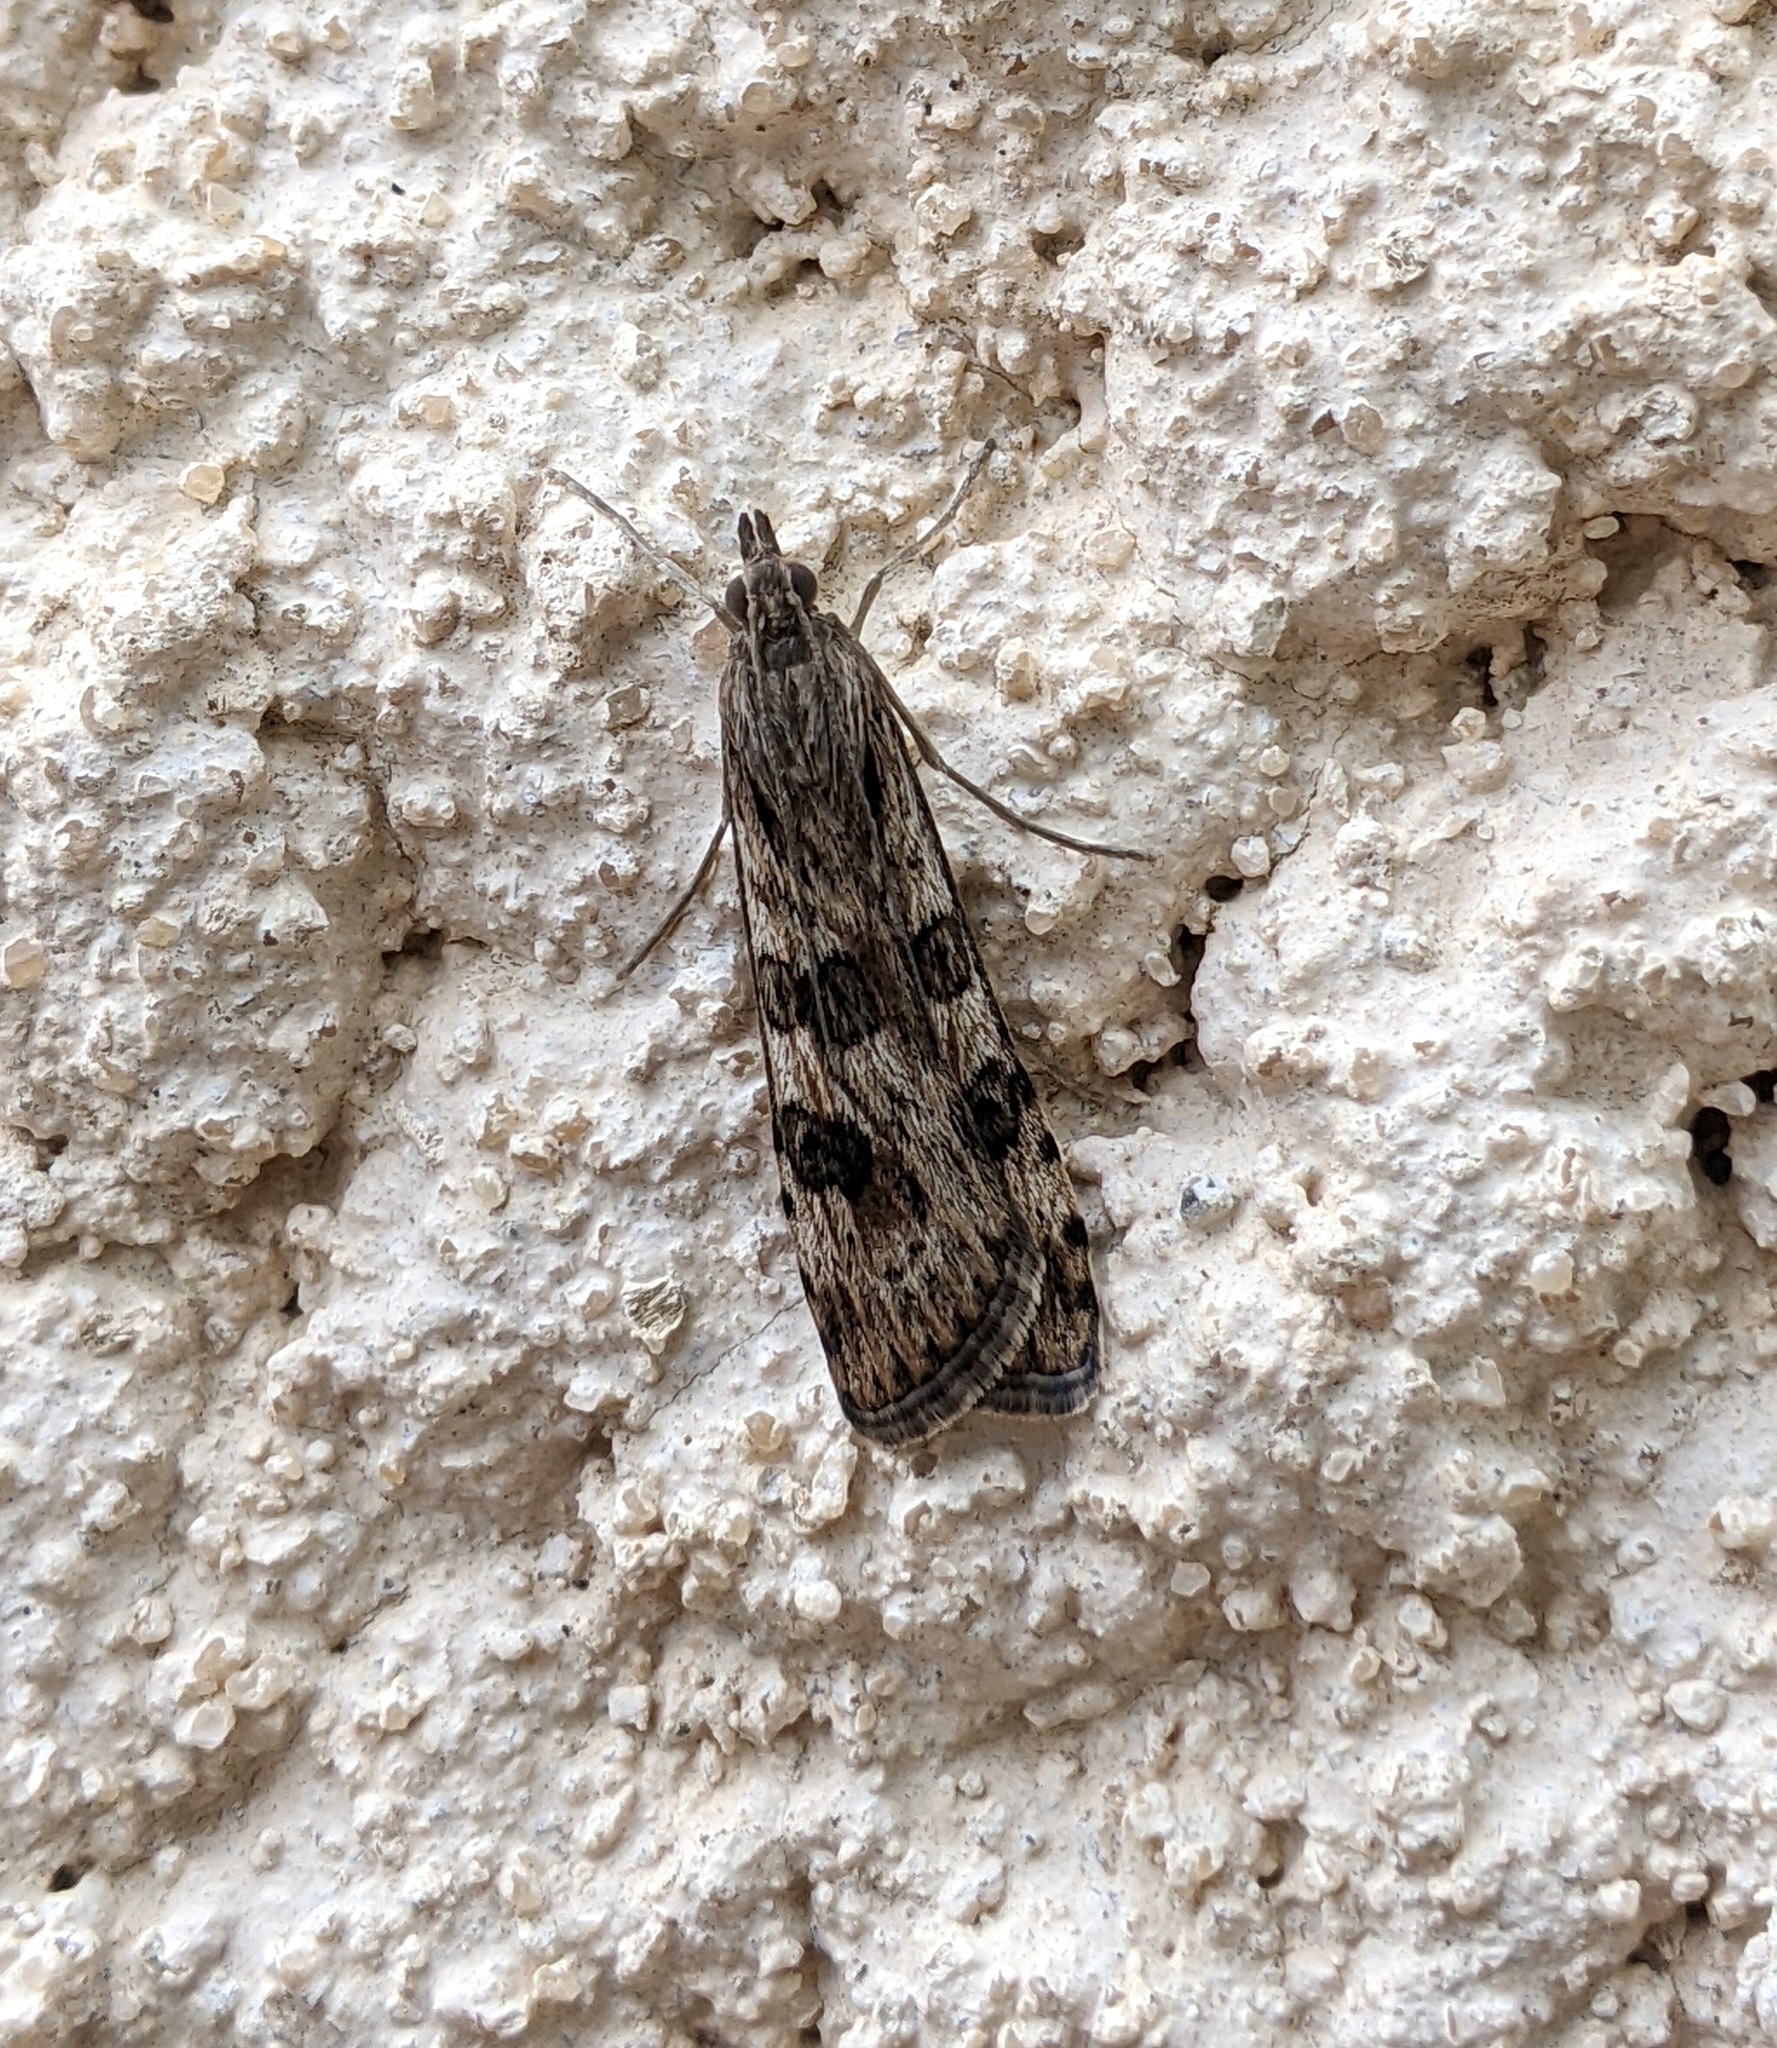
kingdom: Animalia
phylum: Arthropoda
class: Insecta
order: Lepidoptera
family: Crambidae
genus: Nomophila
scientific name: Nomophila noctuella
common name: Rush veneer
